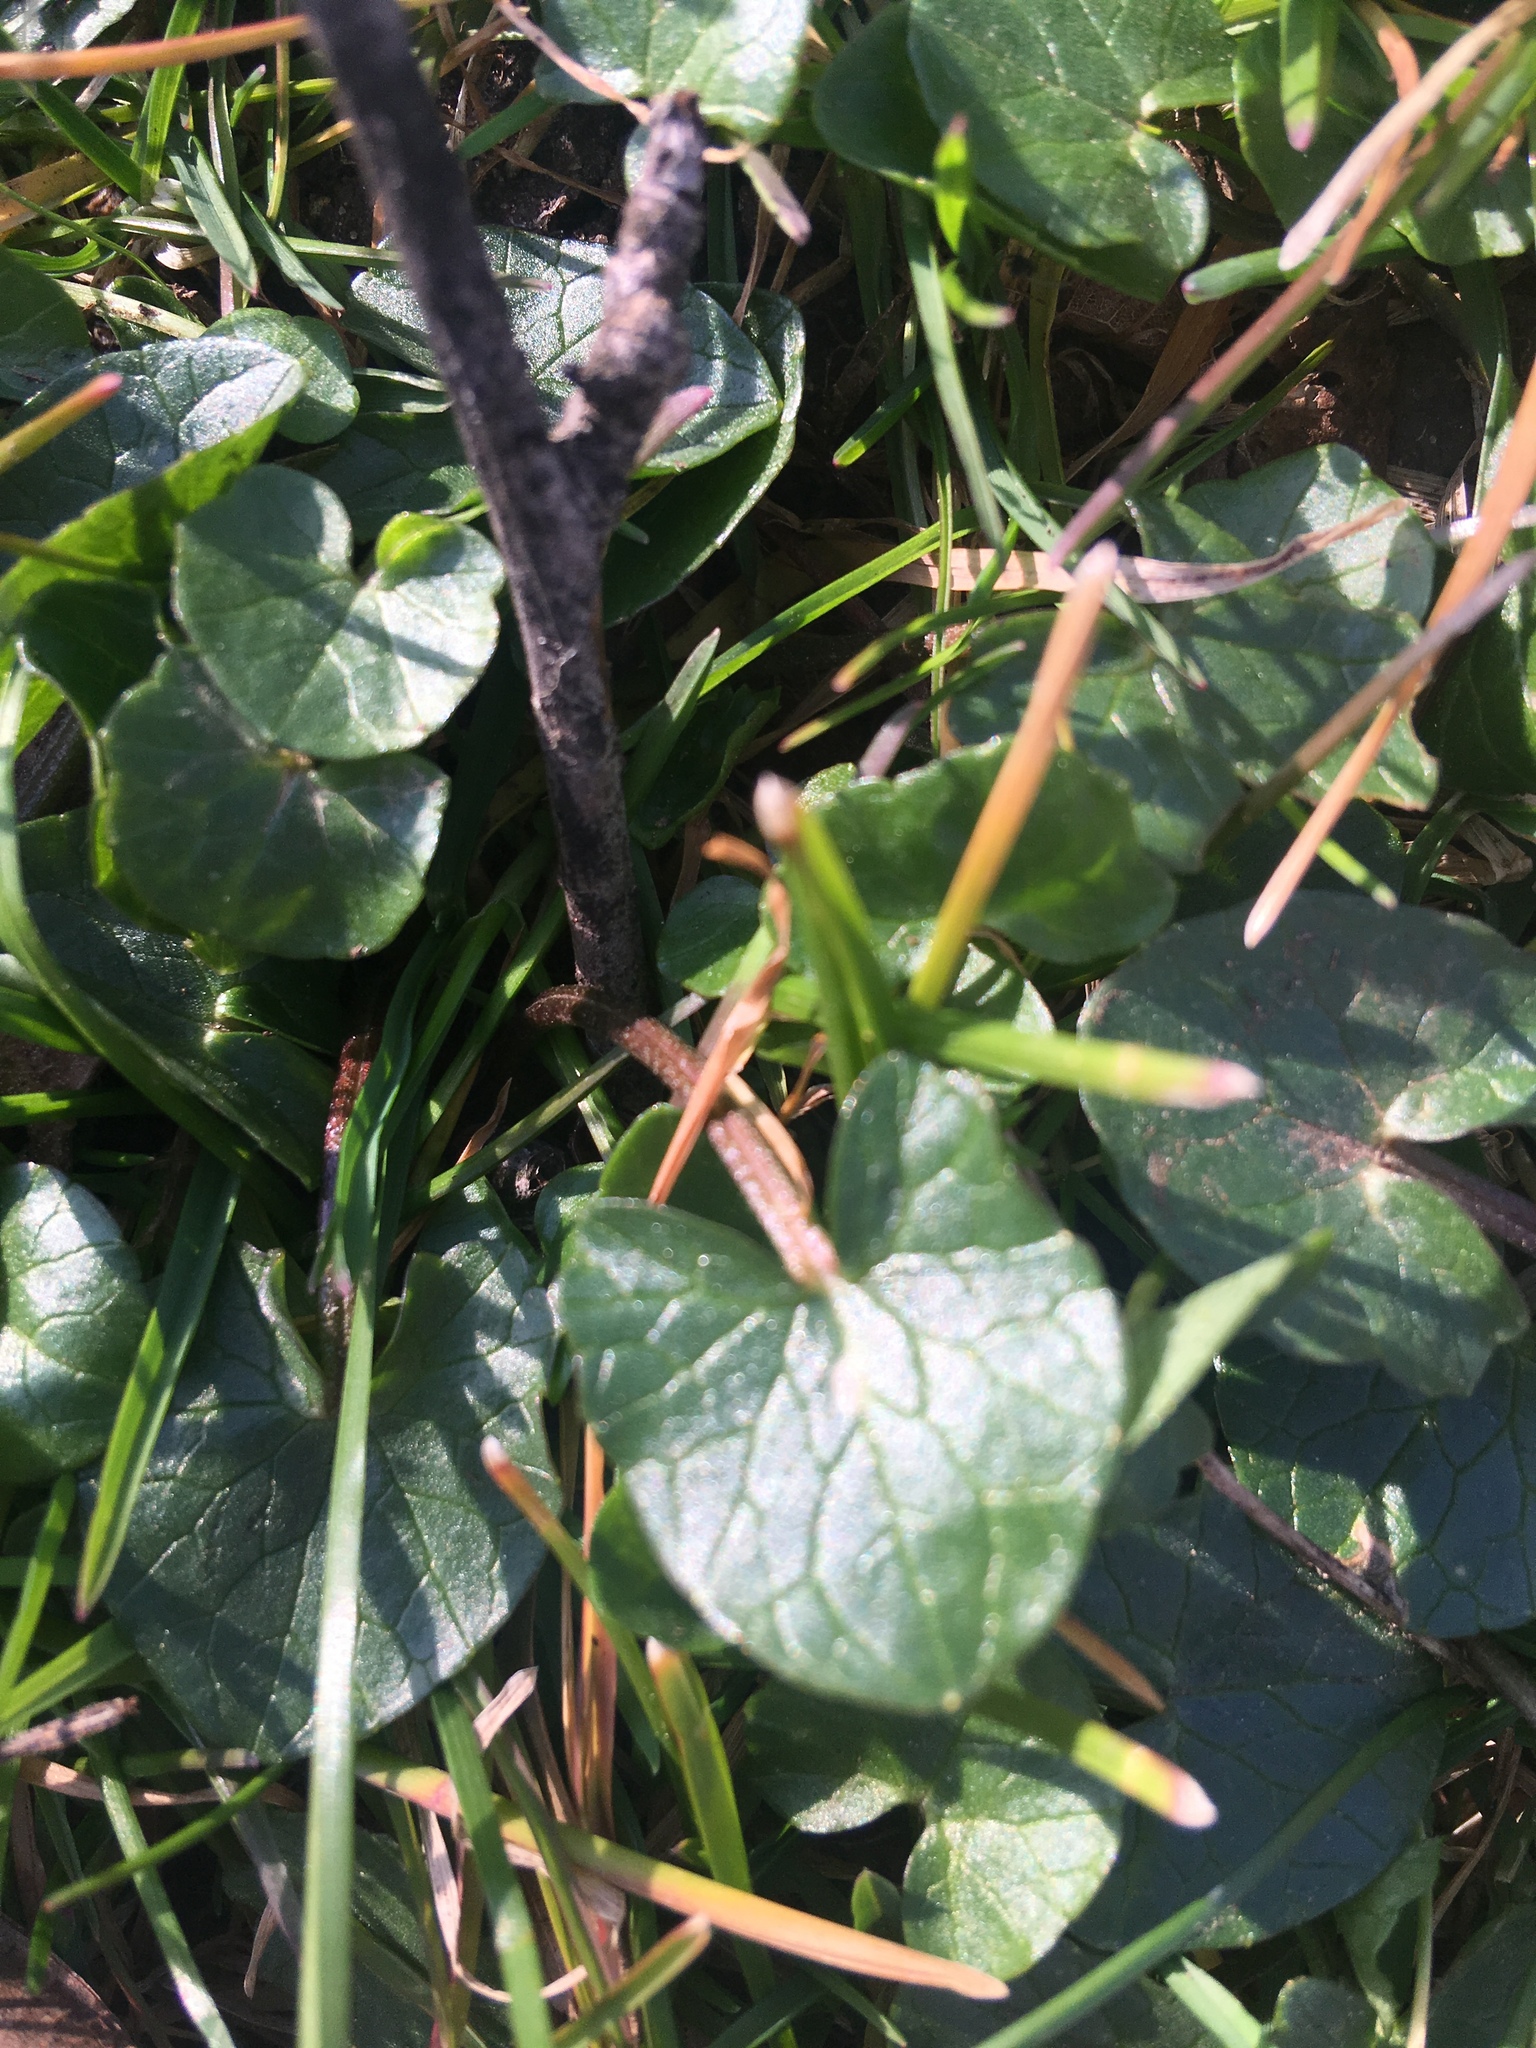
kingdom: Plantae
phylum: Tracheophyta
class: Magnoliopsida
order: Ranunculales
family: Ranunculaceae
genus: Ficaria
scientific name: Ficaria verna
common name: Lesser celandine
